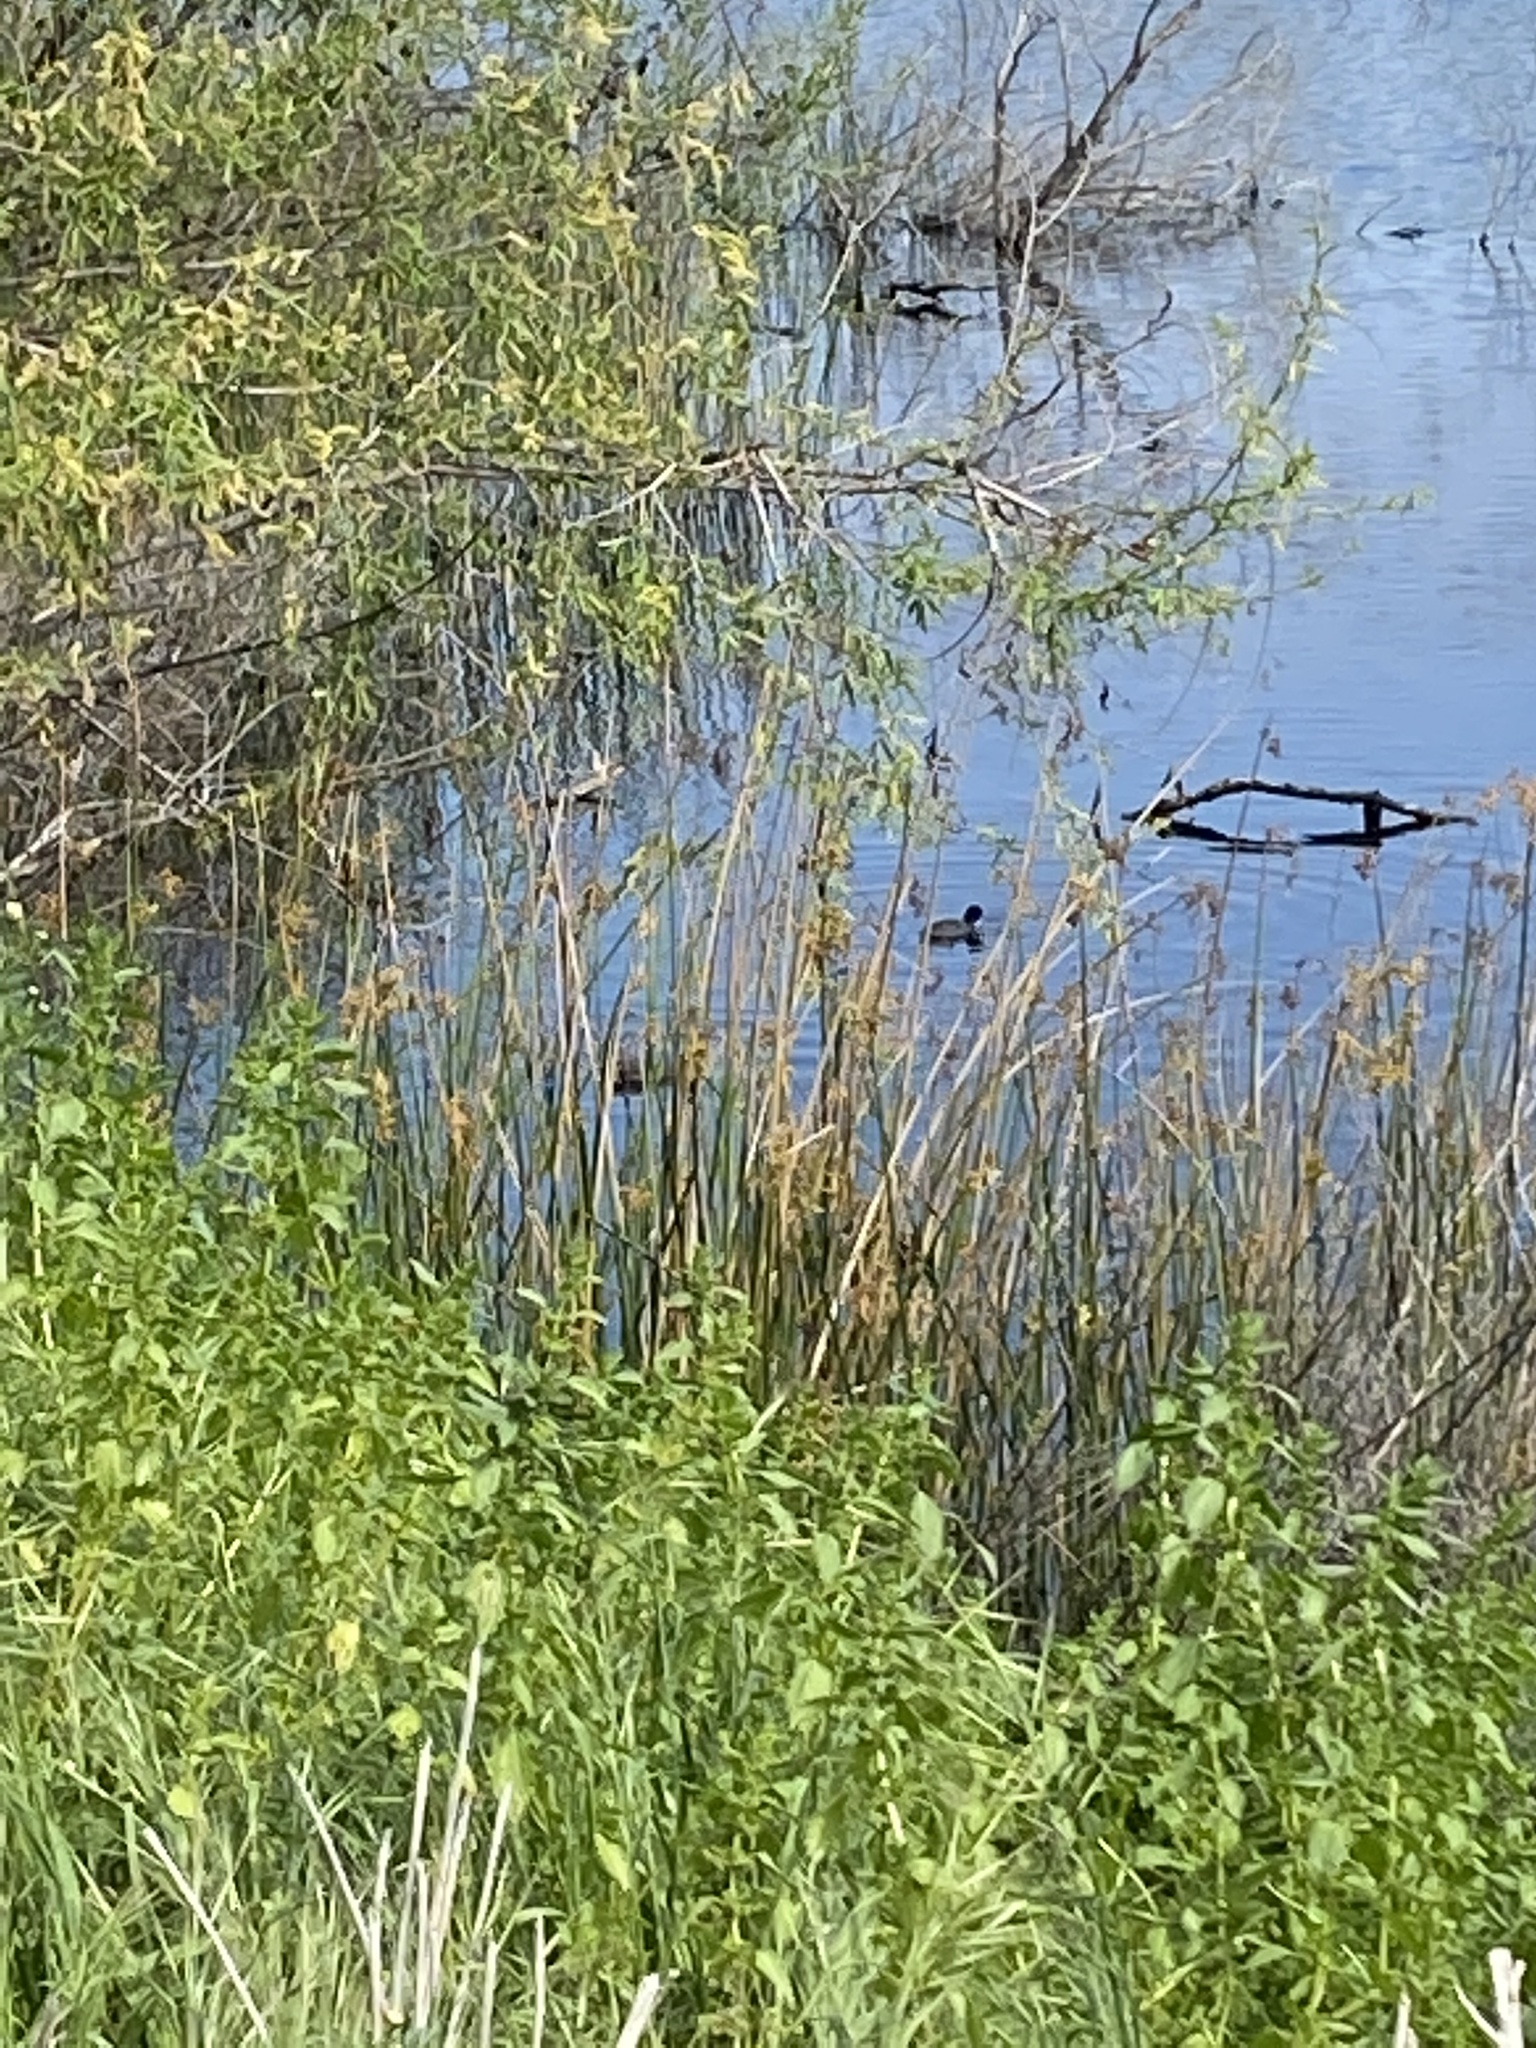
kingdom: Animalia
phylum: Chordata
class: Aves
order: Gruiformes
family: Rallidae
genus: Fulica
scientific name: Fulica americana
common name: American coot
